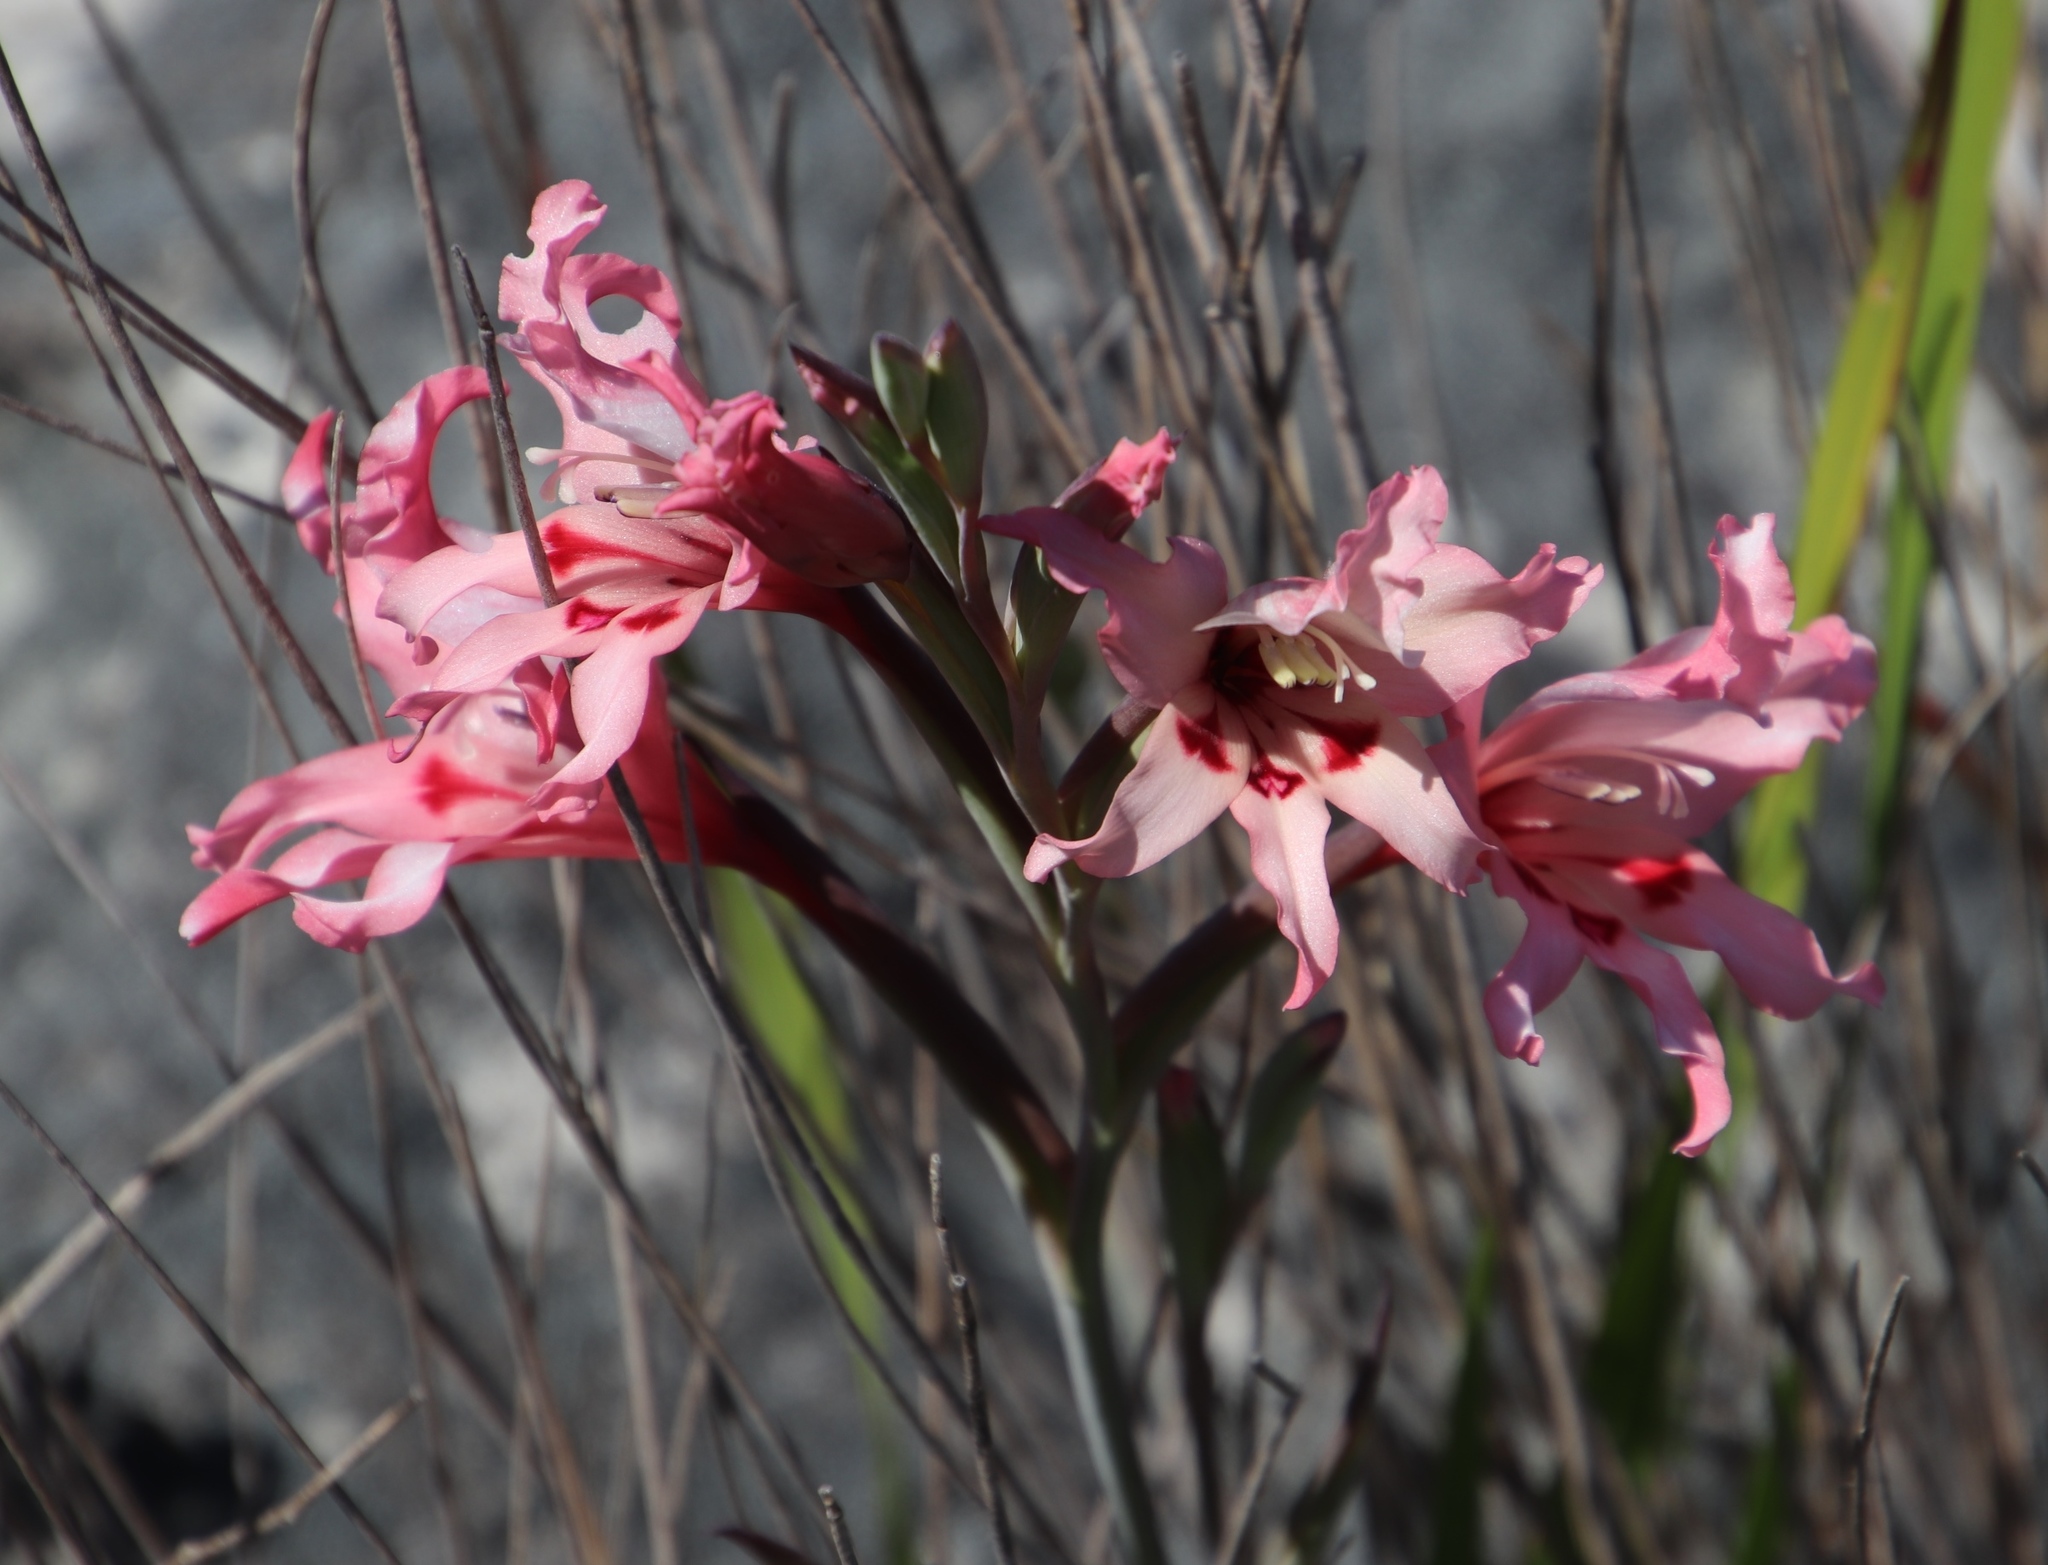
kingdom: Plantae
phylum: Tracheophyta
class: Liliopsida
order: Asparagales
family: Iridaceae
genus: Gladiolus
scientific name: Gladiolus carneus
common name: Painted-lady
